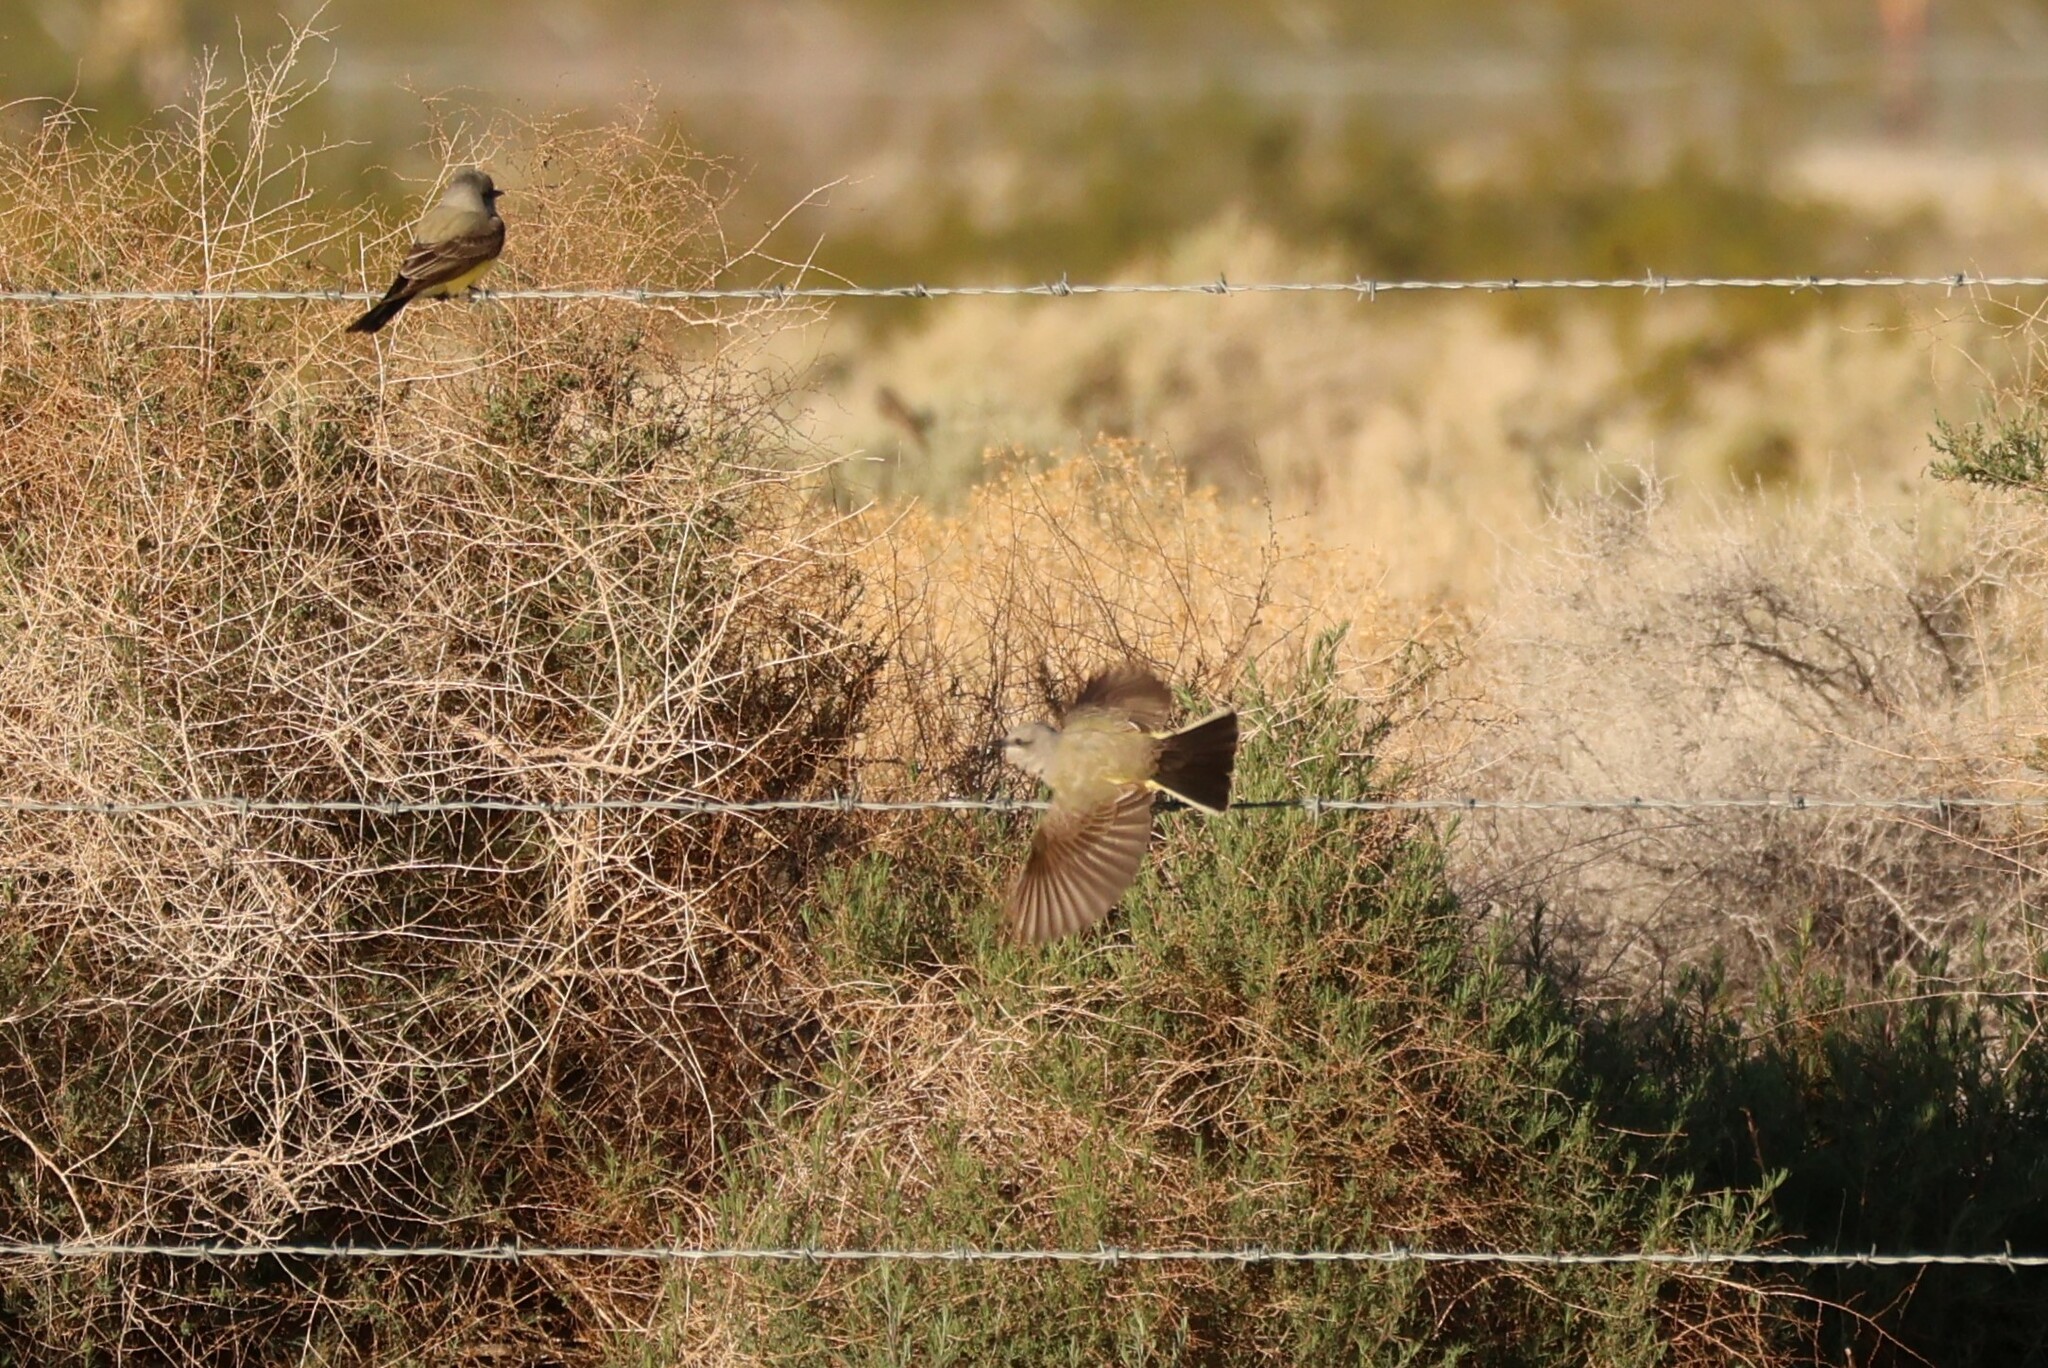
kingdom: Animalia
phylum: Chordata
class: Aves
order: Passeriformes
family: Tyrannidae
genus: Tyrannus
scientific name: Tyrannus verticalis
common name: Western kingbird
